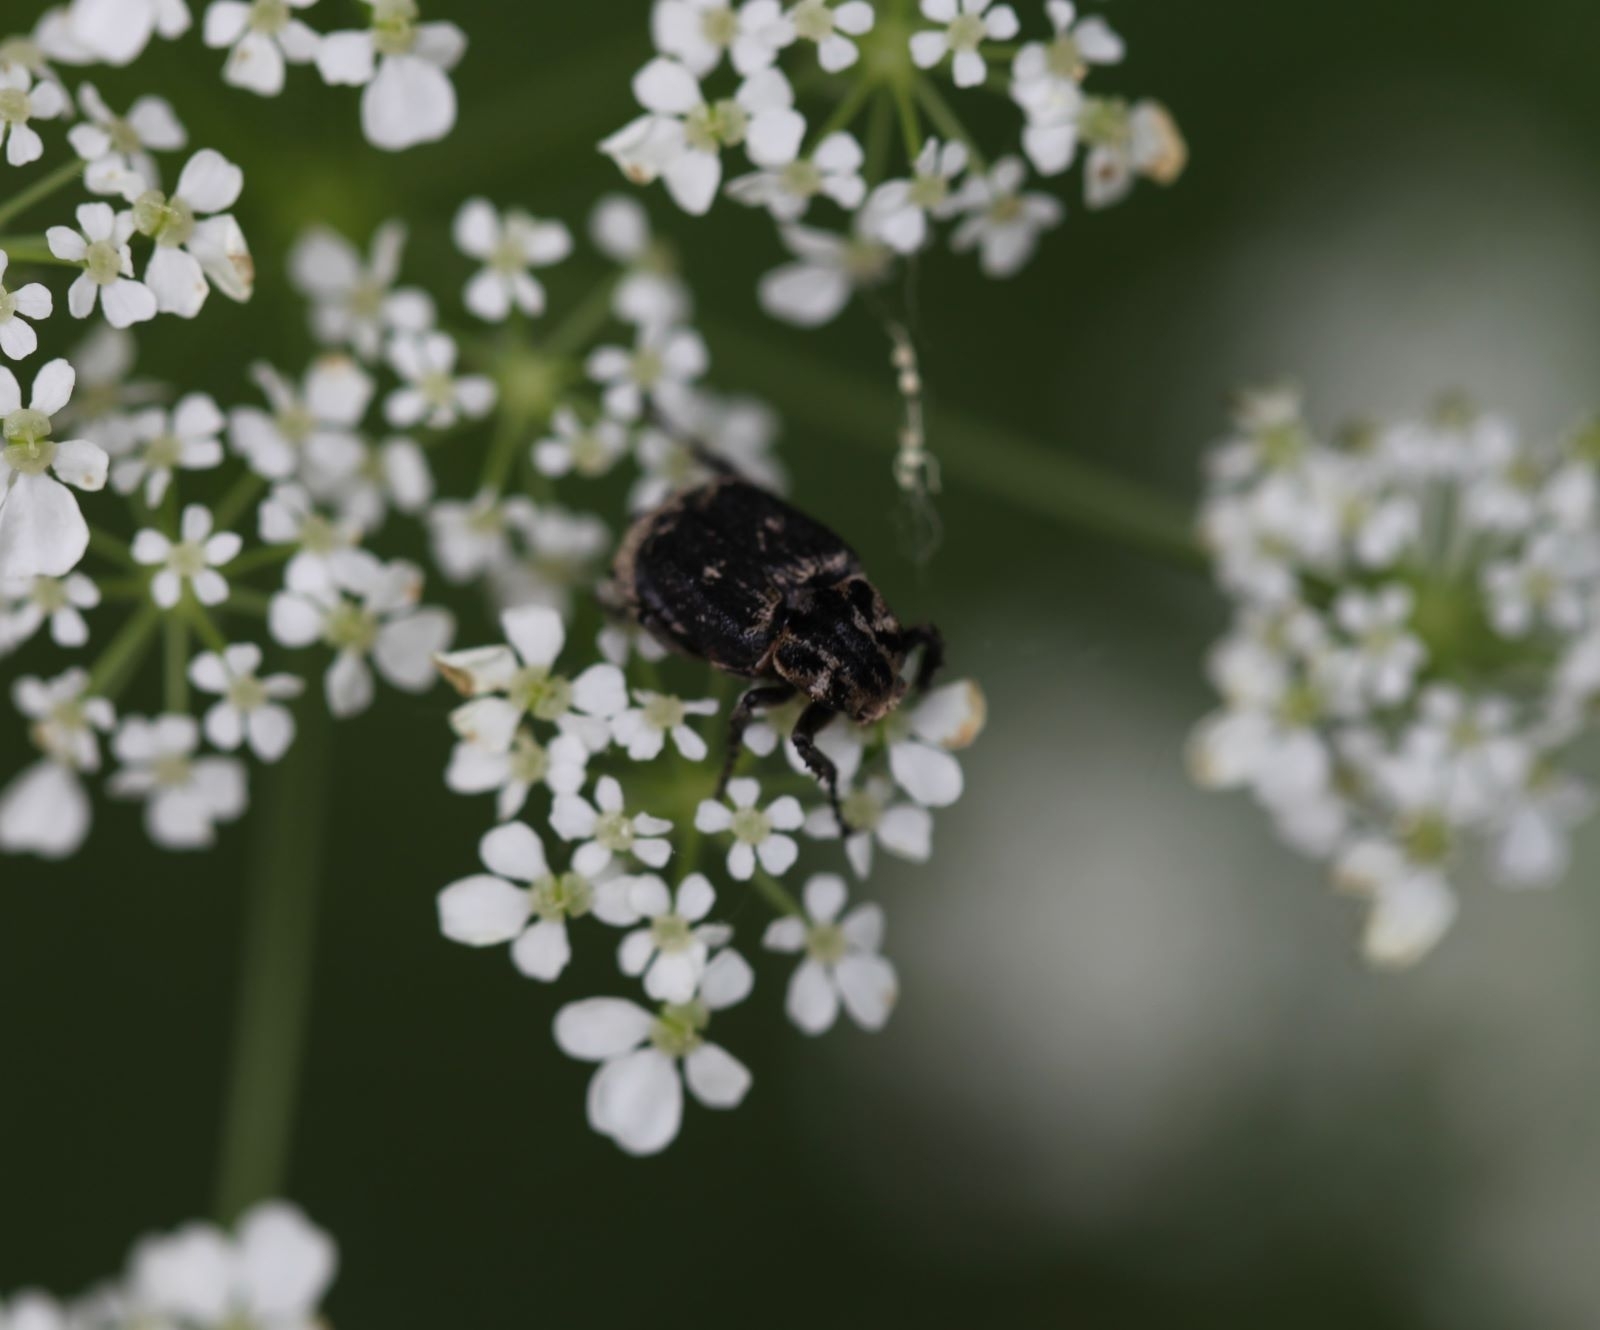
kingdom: Animalia
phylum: Arthropoda
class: Insecta
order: Coleoptera
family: Scarabaeidae
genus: Valgus
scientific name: Valgus hemipterus
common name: Bug flower chafer
